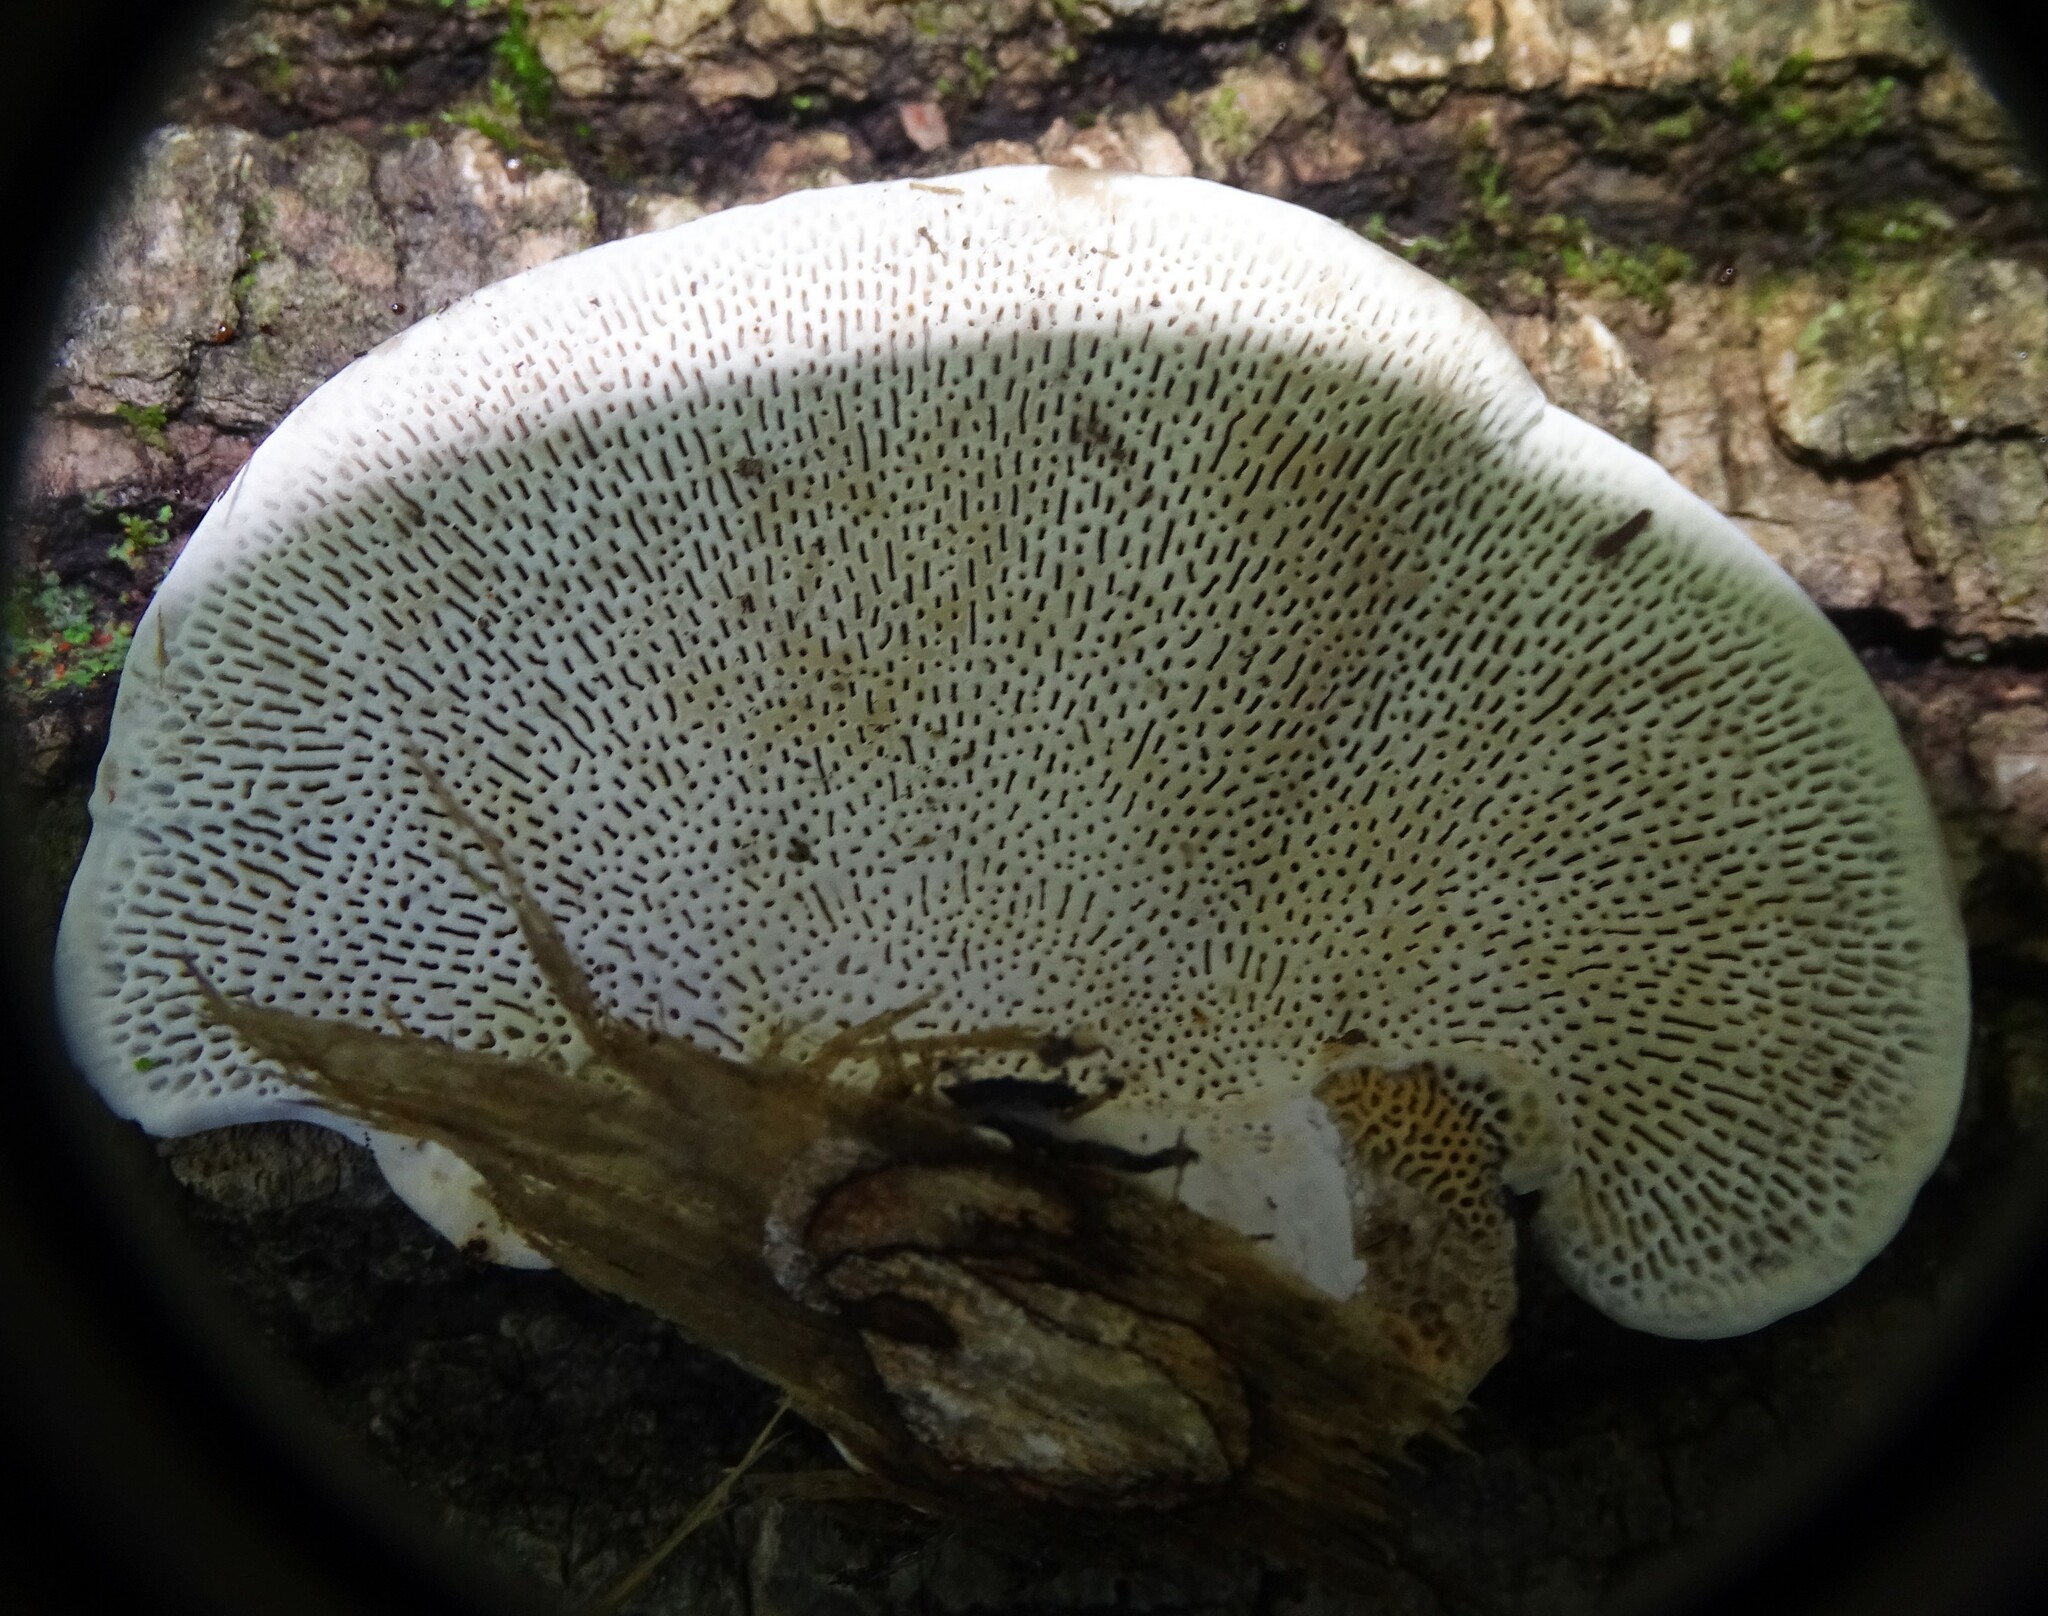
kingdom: Fungi
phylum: Basidiomycota
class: Agaricomycetes
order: Polyporales
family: Polyporaceae
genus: Daedaleopsis
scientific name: Daedaleopsis confragosa
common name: Blushing bracket
